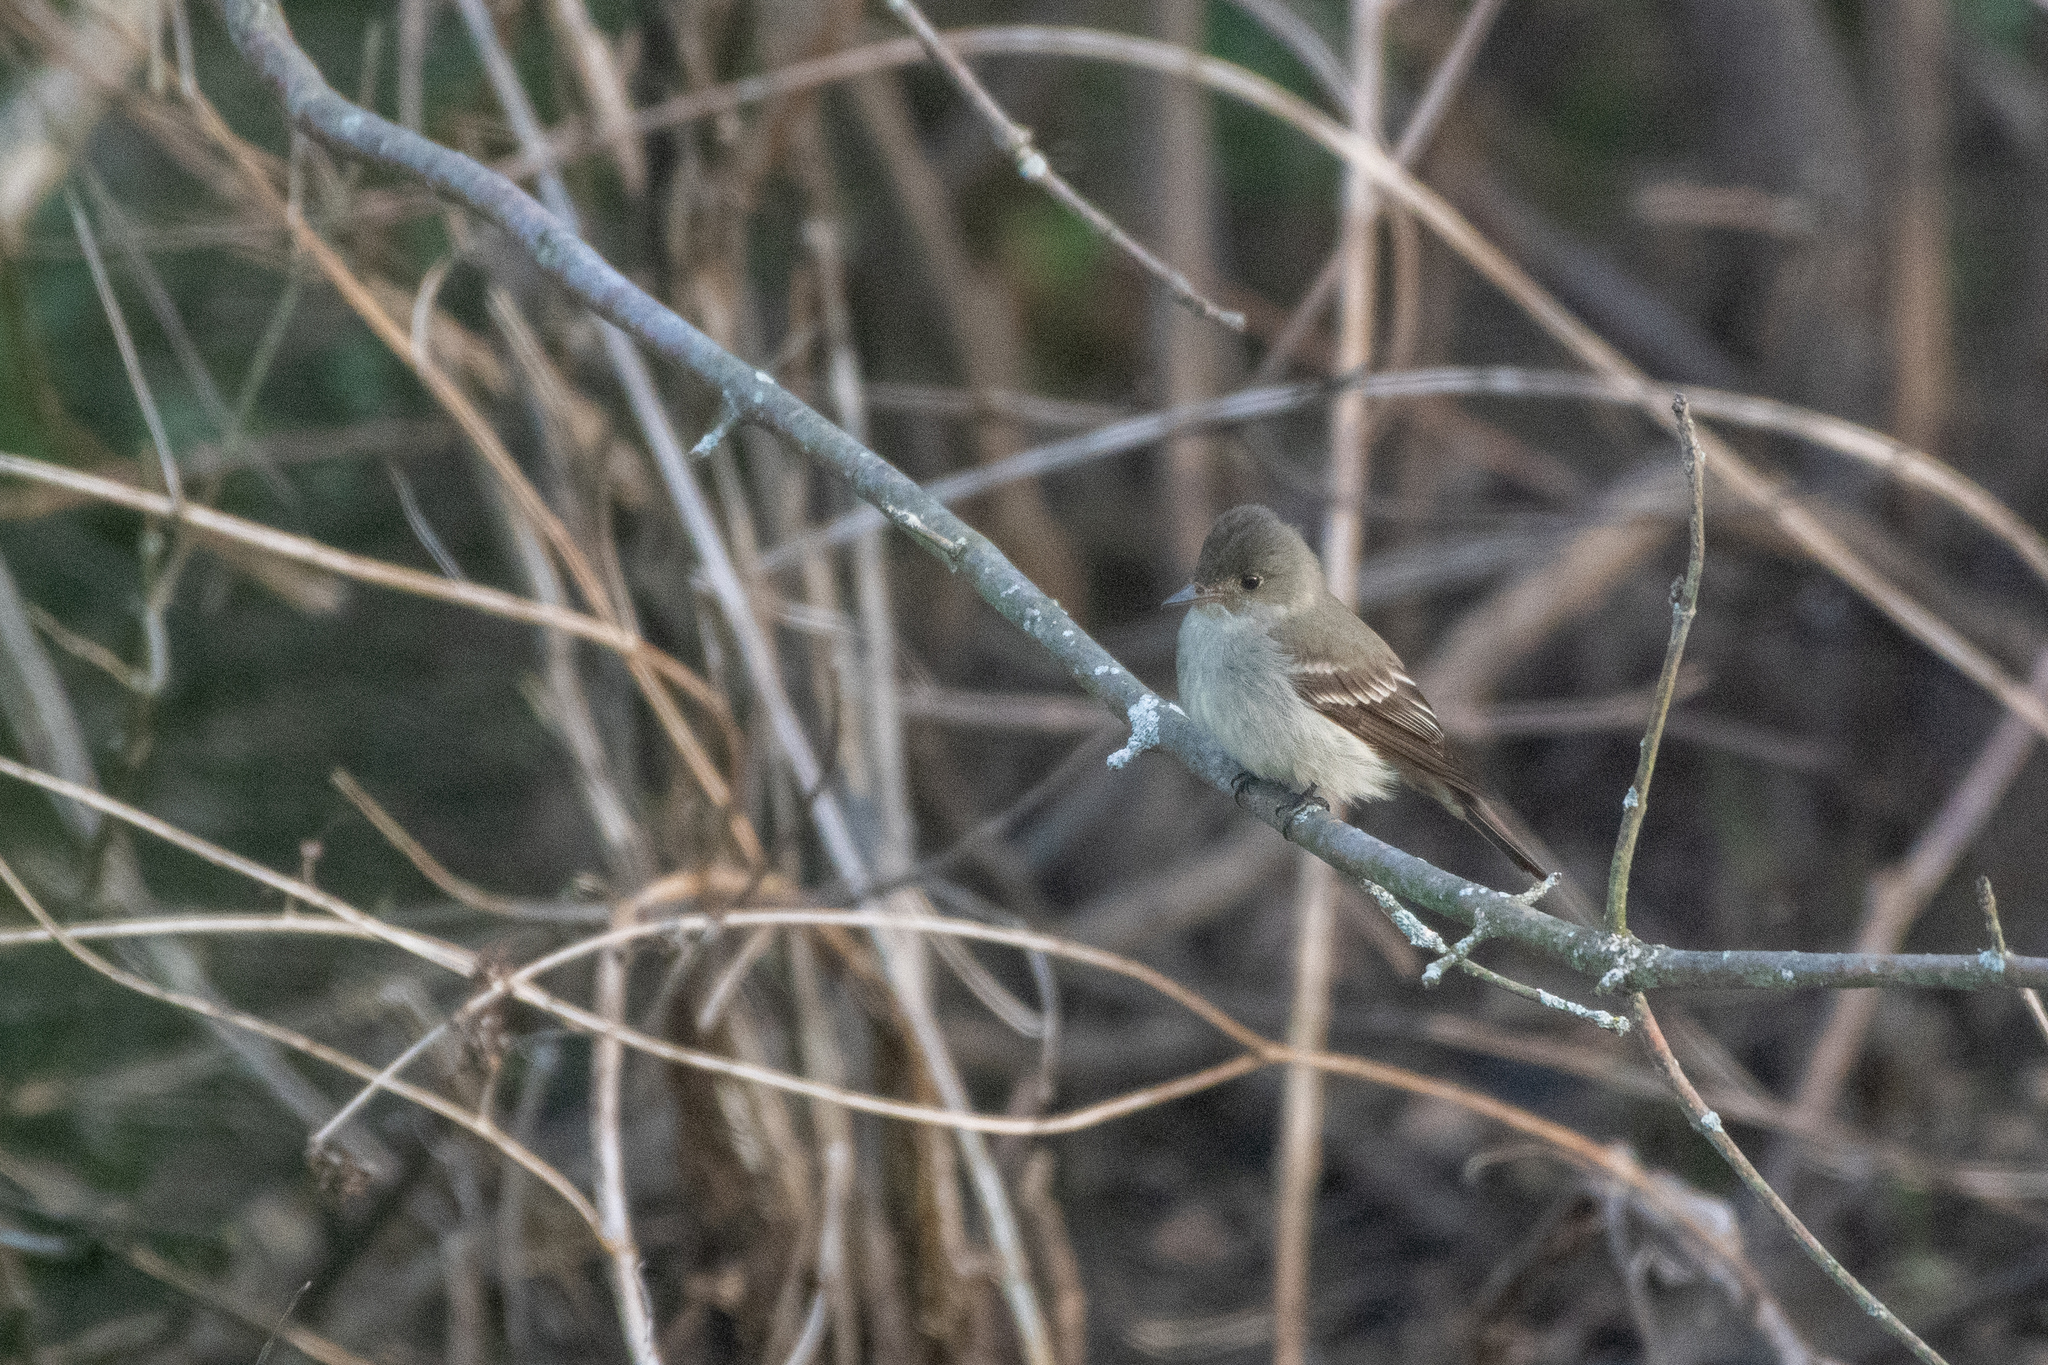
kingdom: Animalia
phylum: Chordata
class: Aves
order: Passeriformes
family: Tyrannidae
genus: Contopus
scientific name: Contopus virens
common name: Eastern wood-pewee
